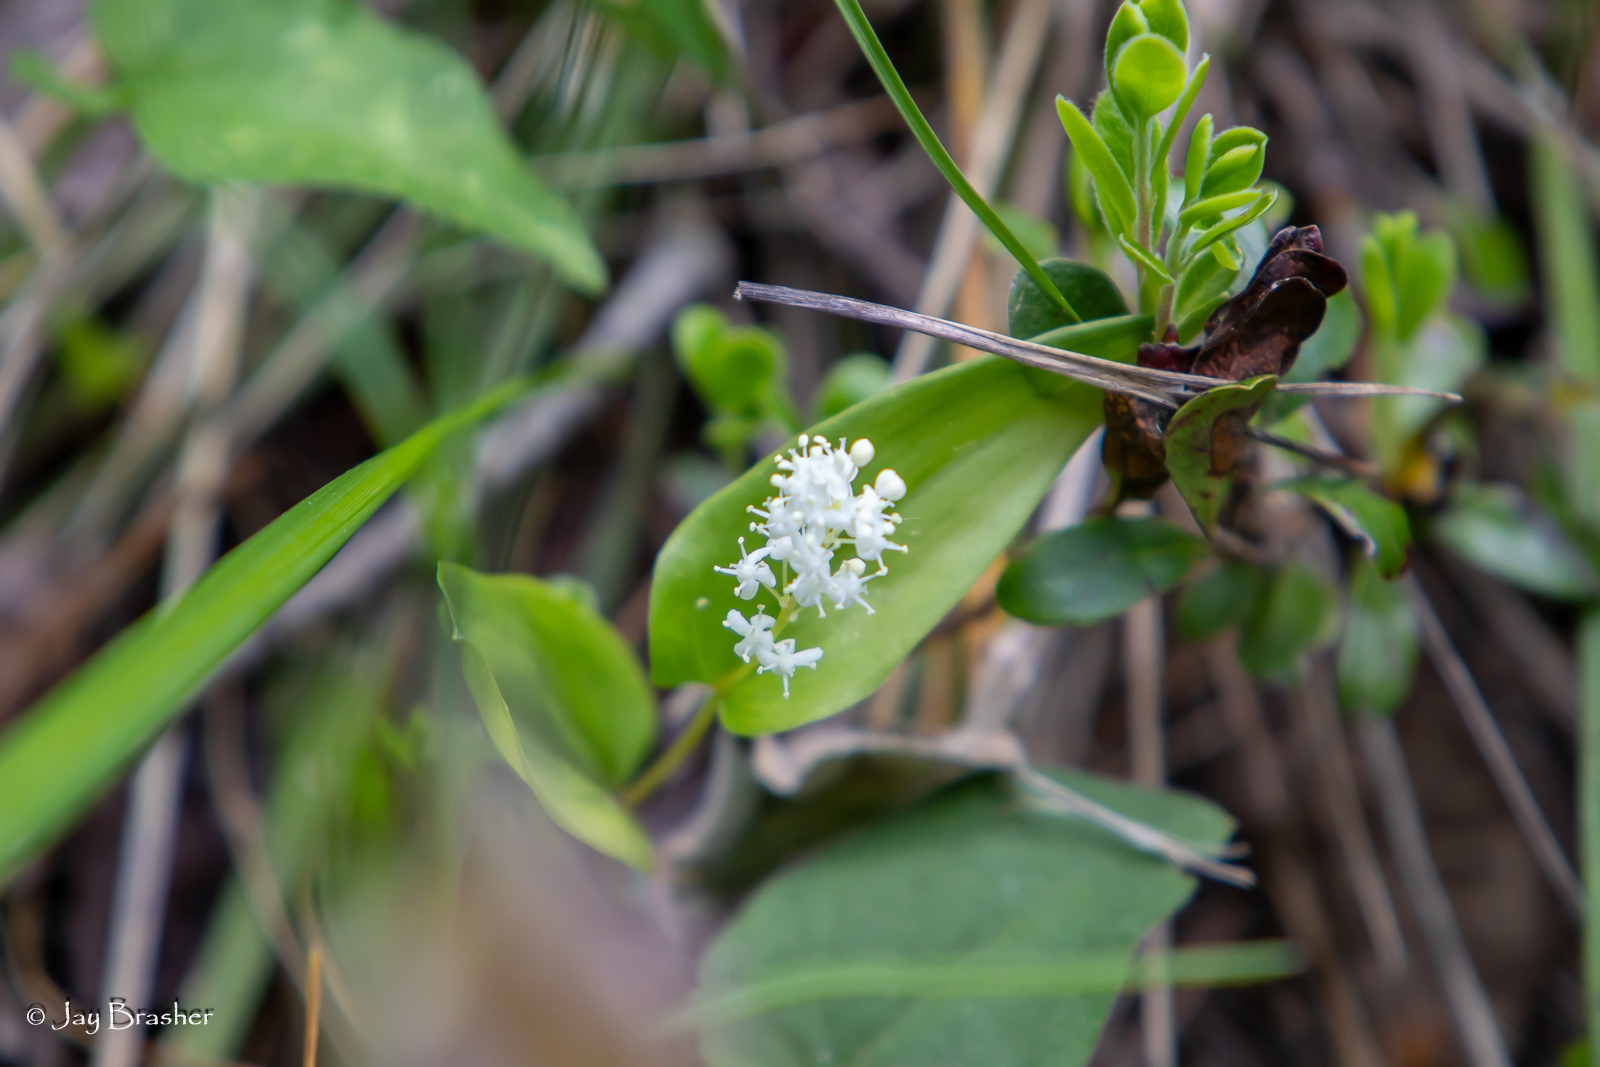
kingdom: Plantae
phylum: Tracheophyta
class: Liliopsida
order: Asparagales
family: Asparagaceae
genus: Maianthemum
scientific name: Maianthemum canadense
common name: False lily-of-the-valley
